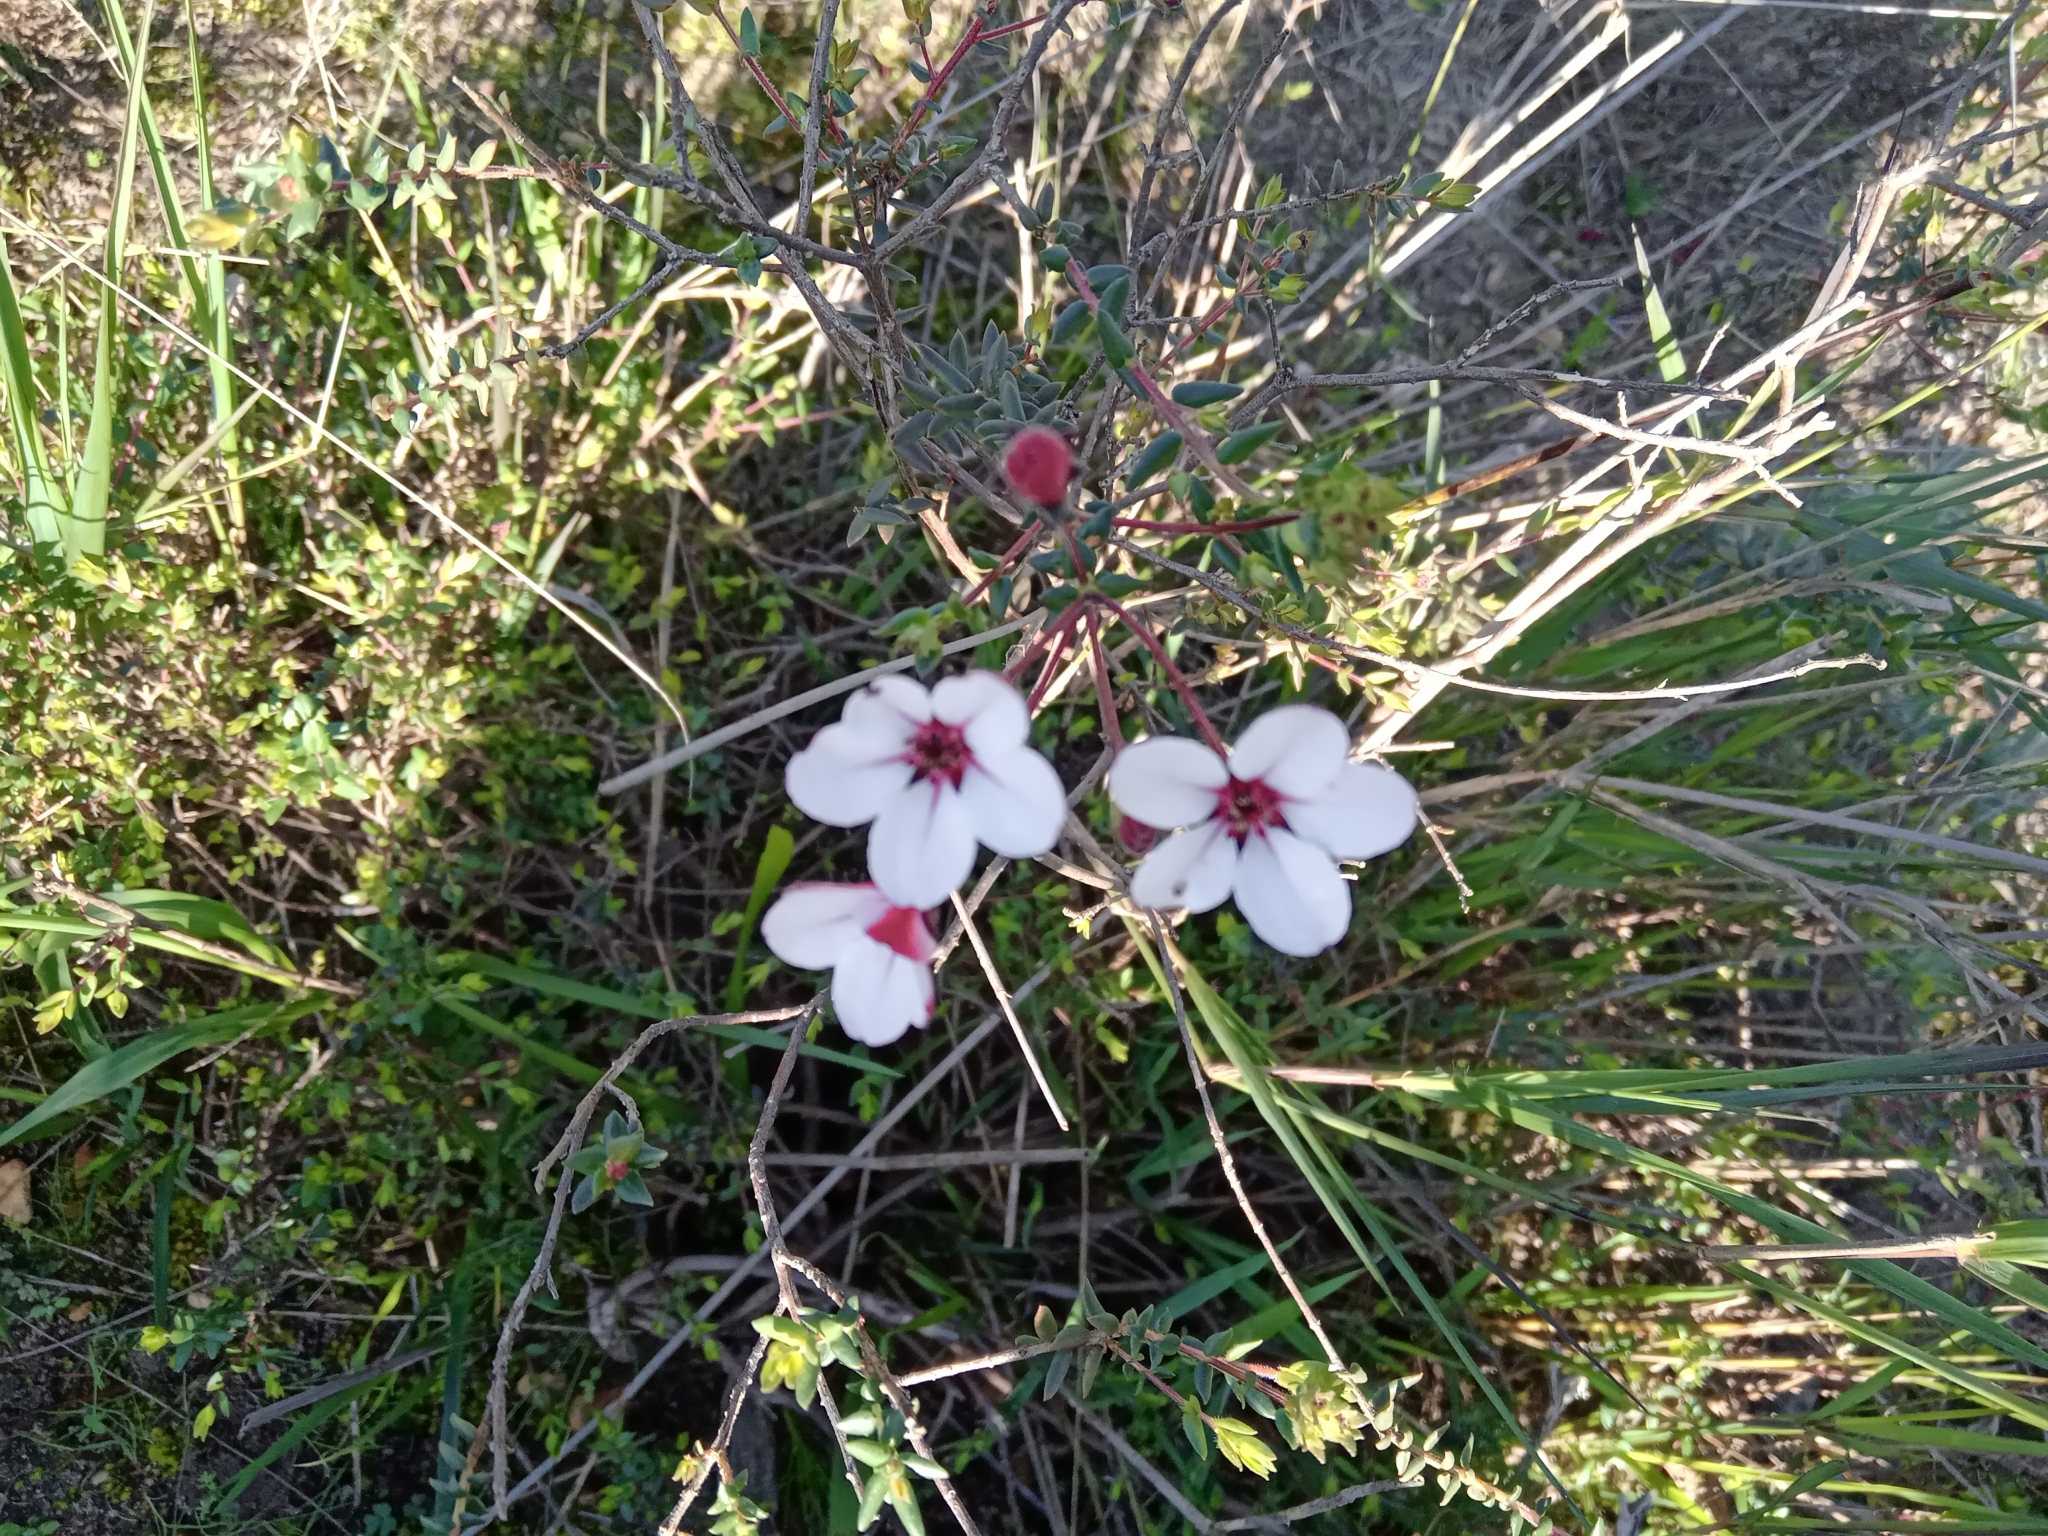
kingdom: Plantae
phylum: Tracheophyta
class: Magnoliopsida
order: Sapindales
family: Rutaceae
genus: Adenandra
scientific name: Adenandra marginata
